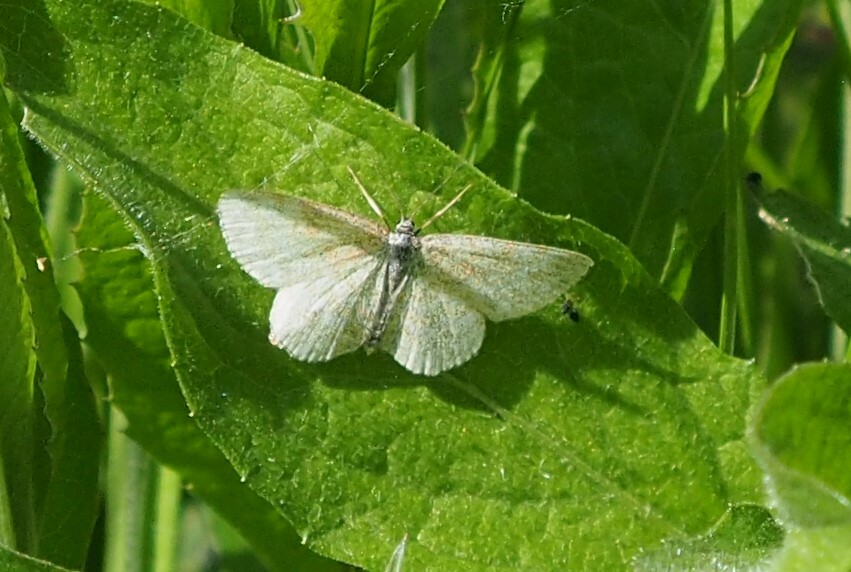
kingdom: Animalia
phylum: Arthropoda
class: Insecta
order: Lepidoptera
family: Geometridae
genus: Scopula
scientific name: Scopula immorata
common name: Lewes wave
